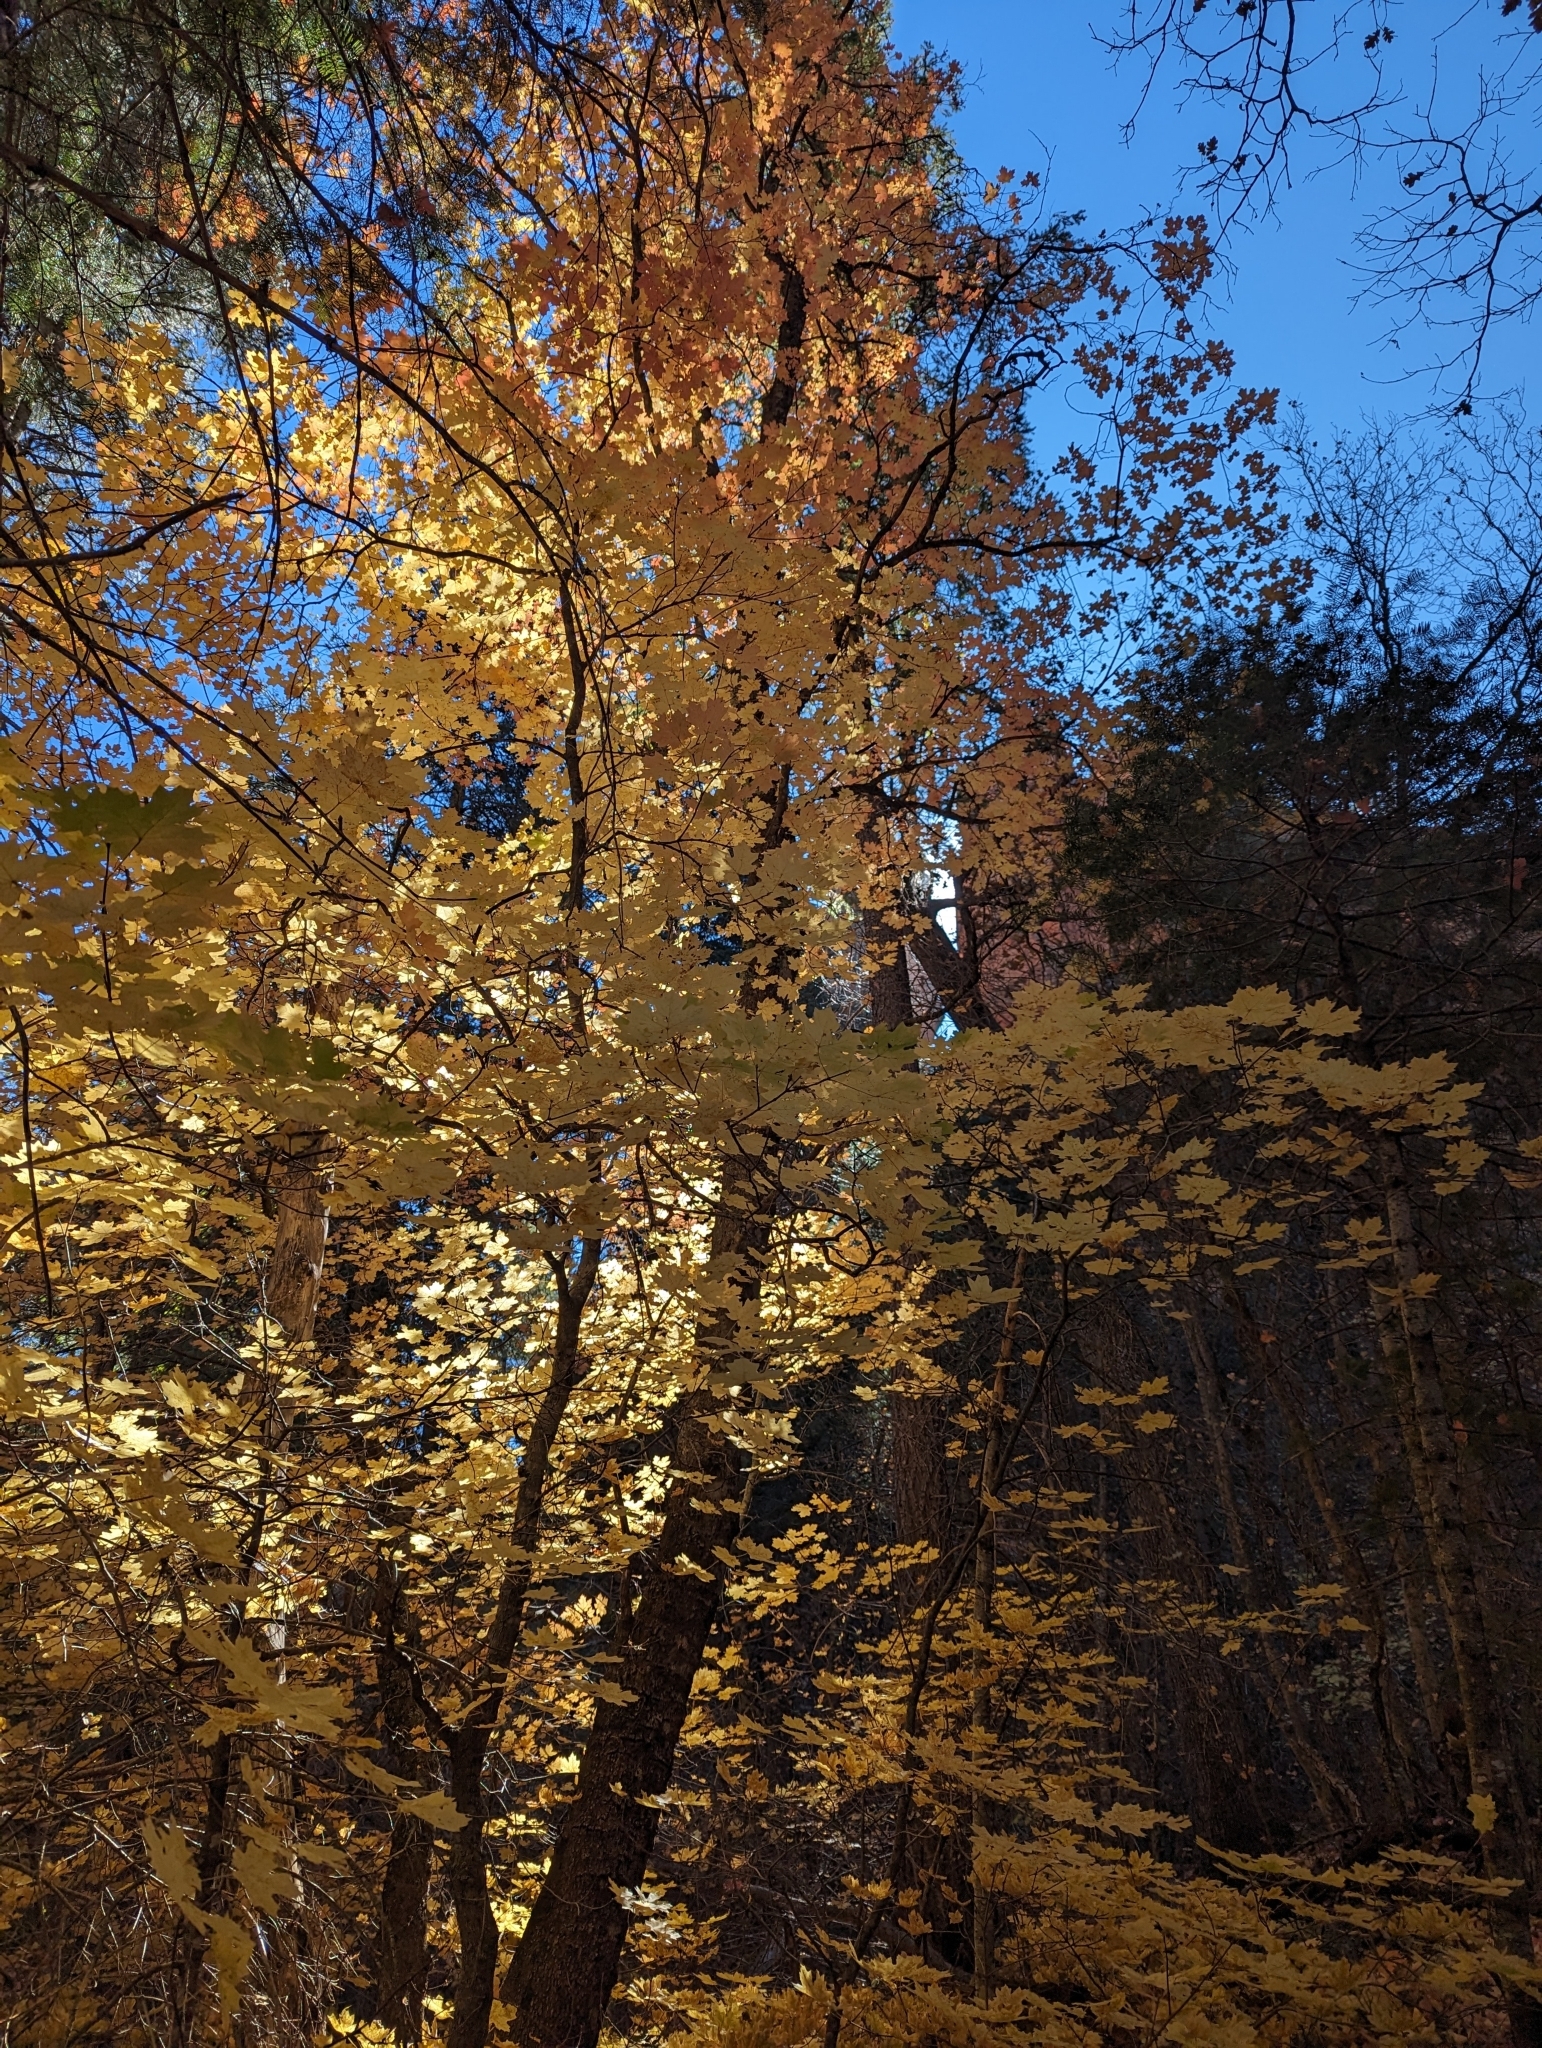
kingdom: Plantae
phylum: Tracheophyta
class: Magnoliopsida
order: Sapindales
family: Sapindaceae
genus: Acer
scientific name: Acer grandidentatum
